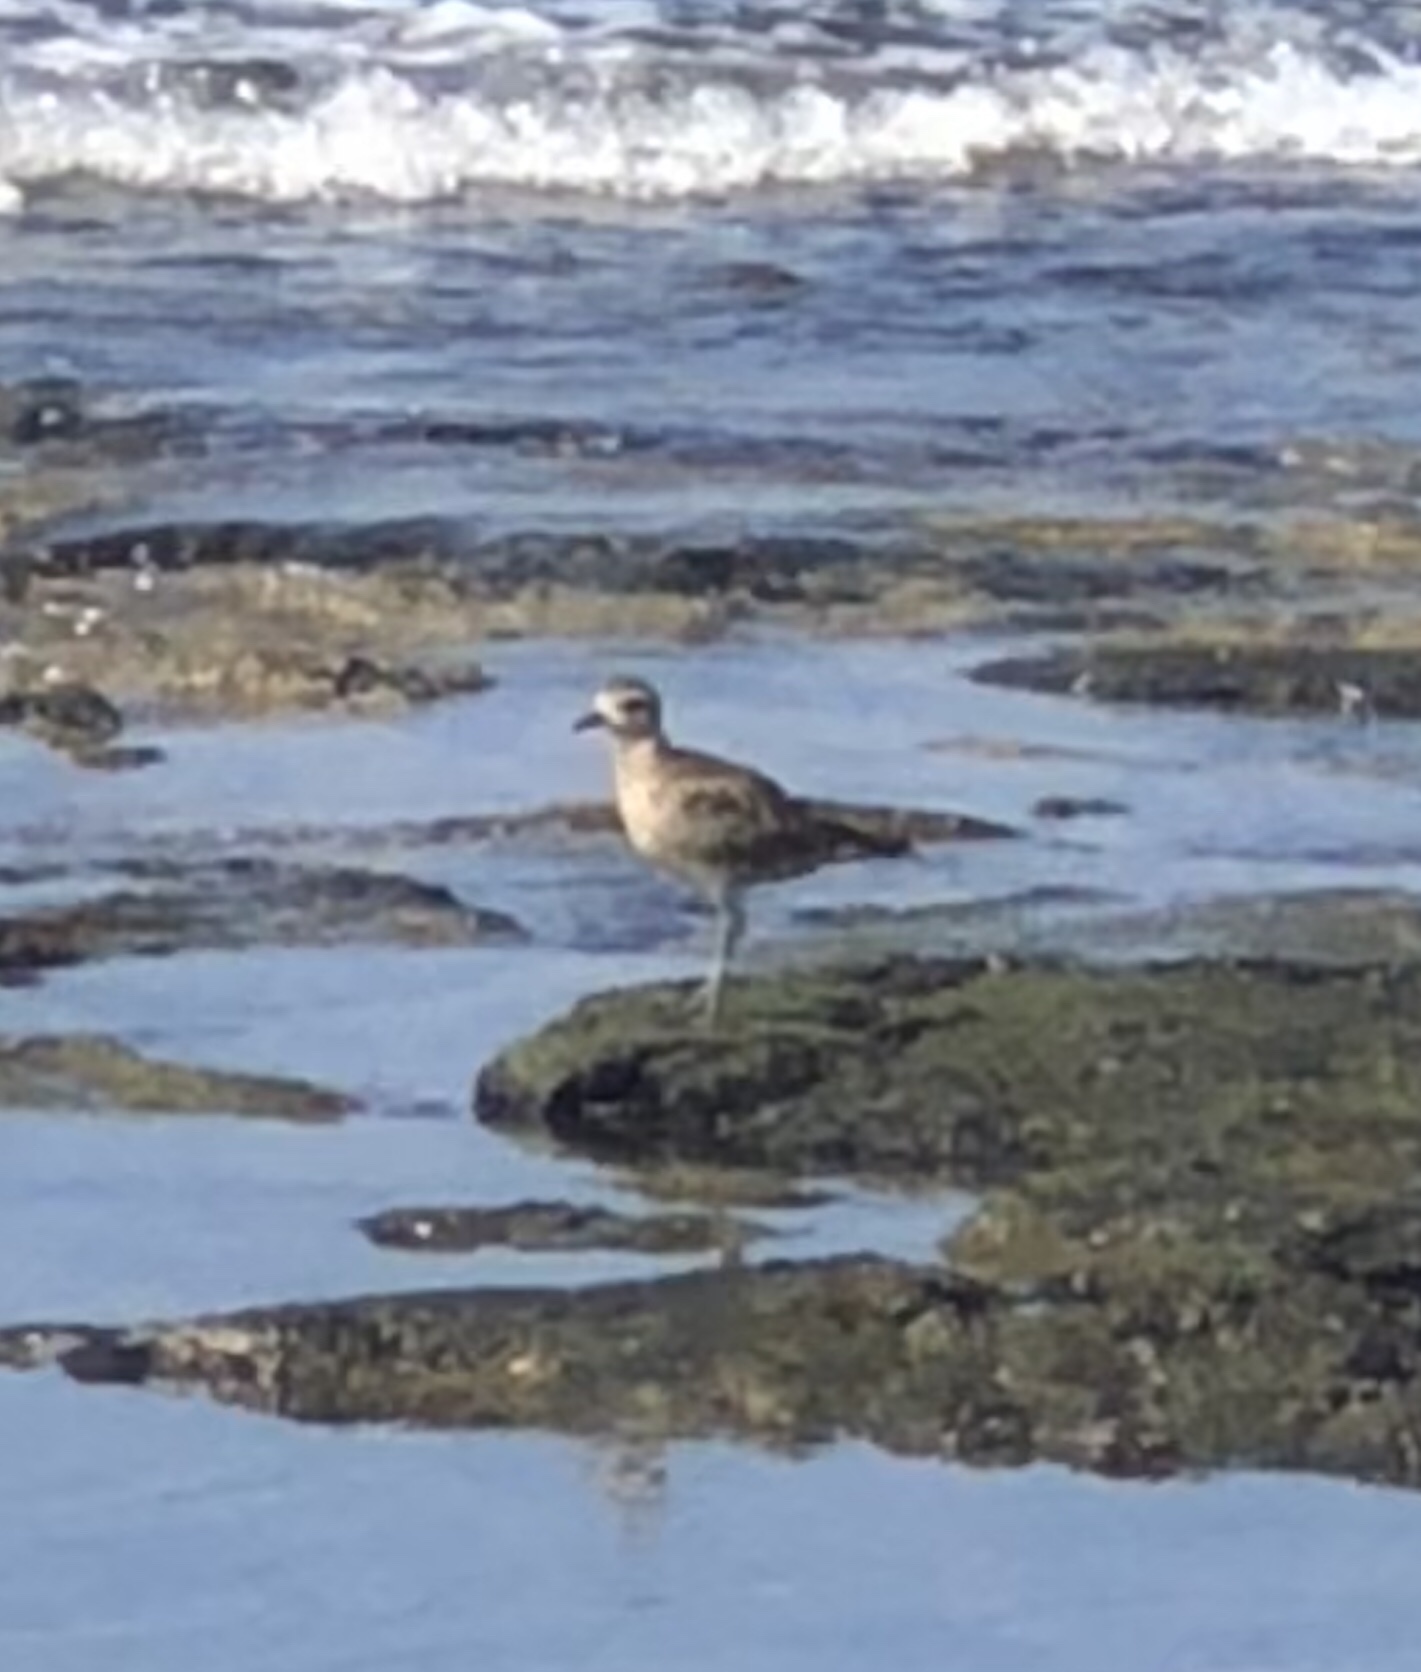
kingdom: Animalia
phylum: Chordata
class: Aves
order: Charadriiformes
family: Charadriidae
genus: Pluvialis
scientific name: Pluvialis fulva
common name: Pacific golden plover
